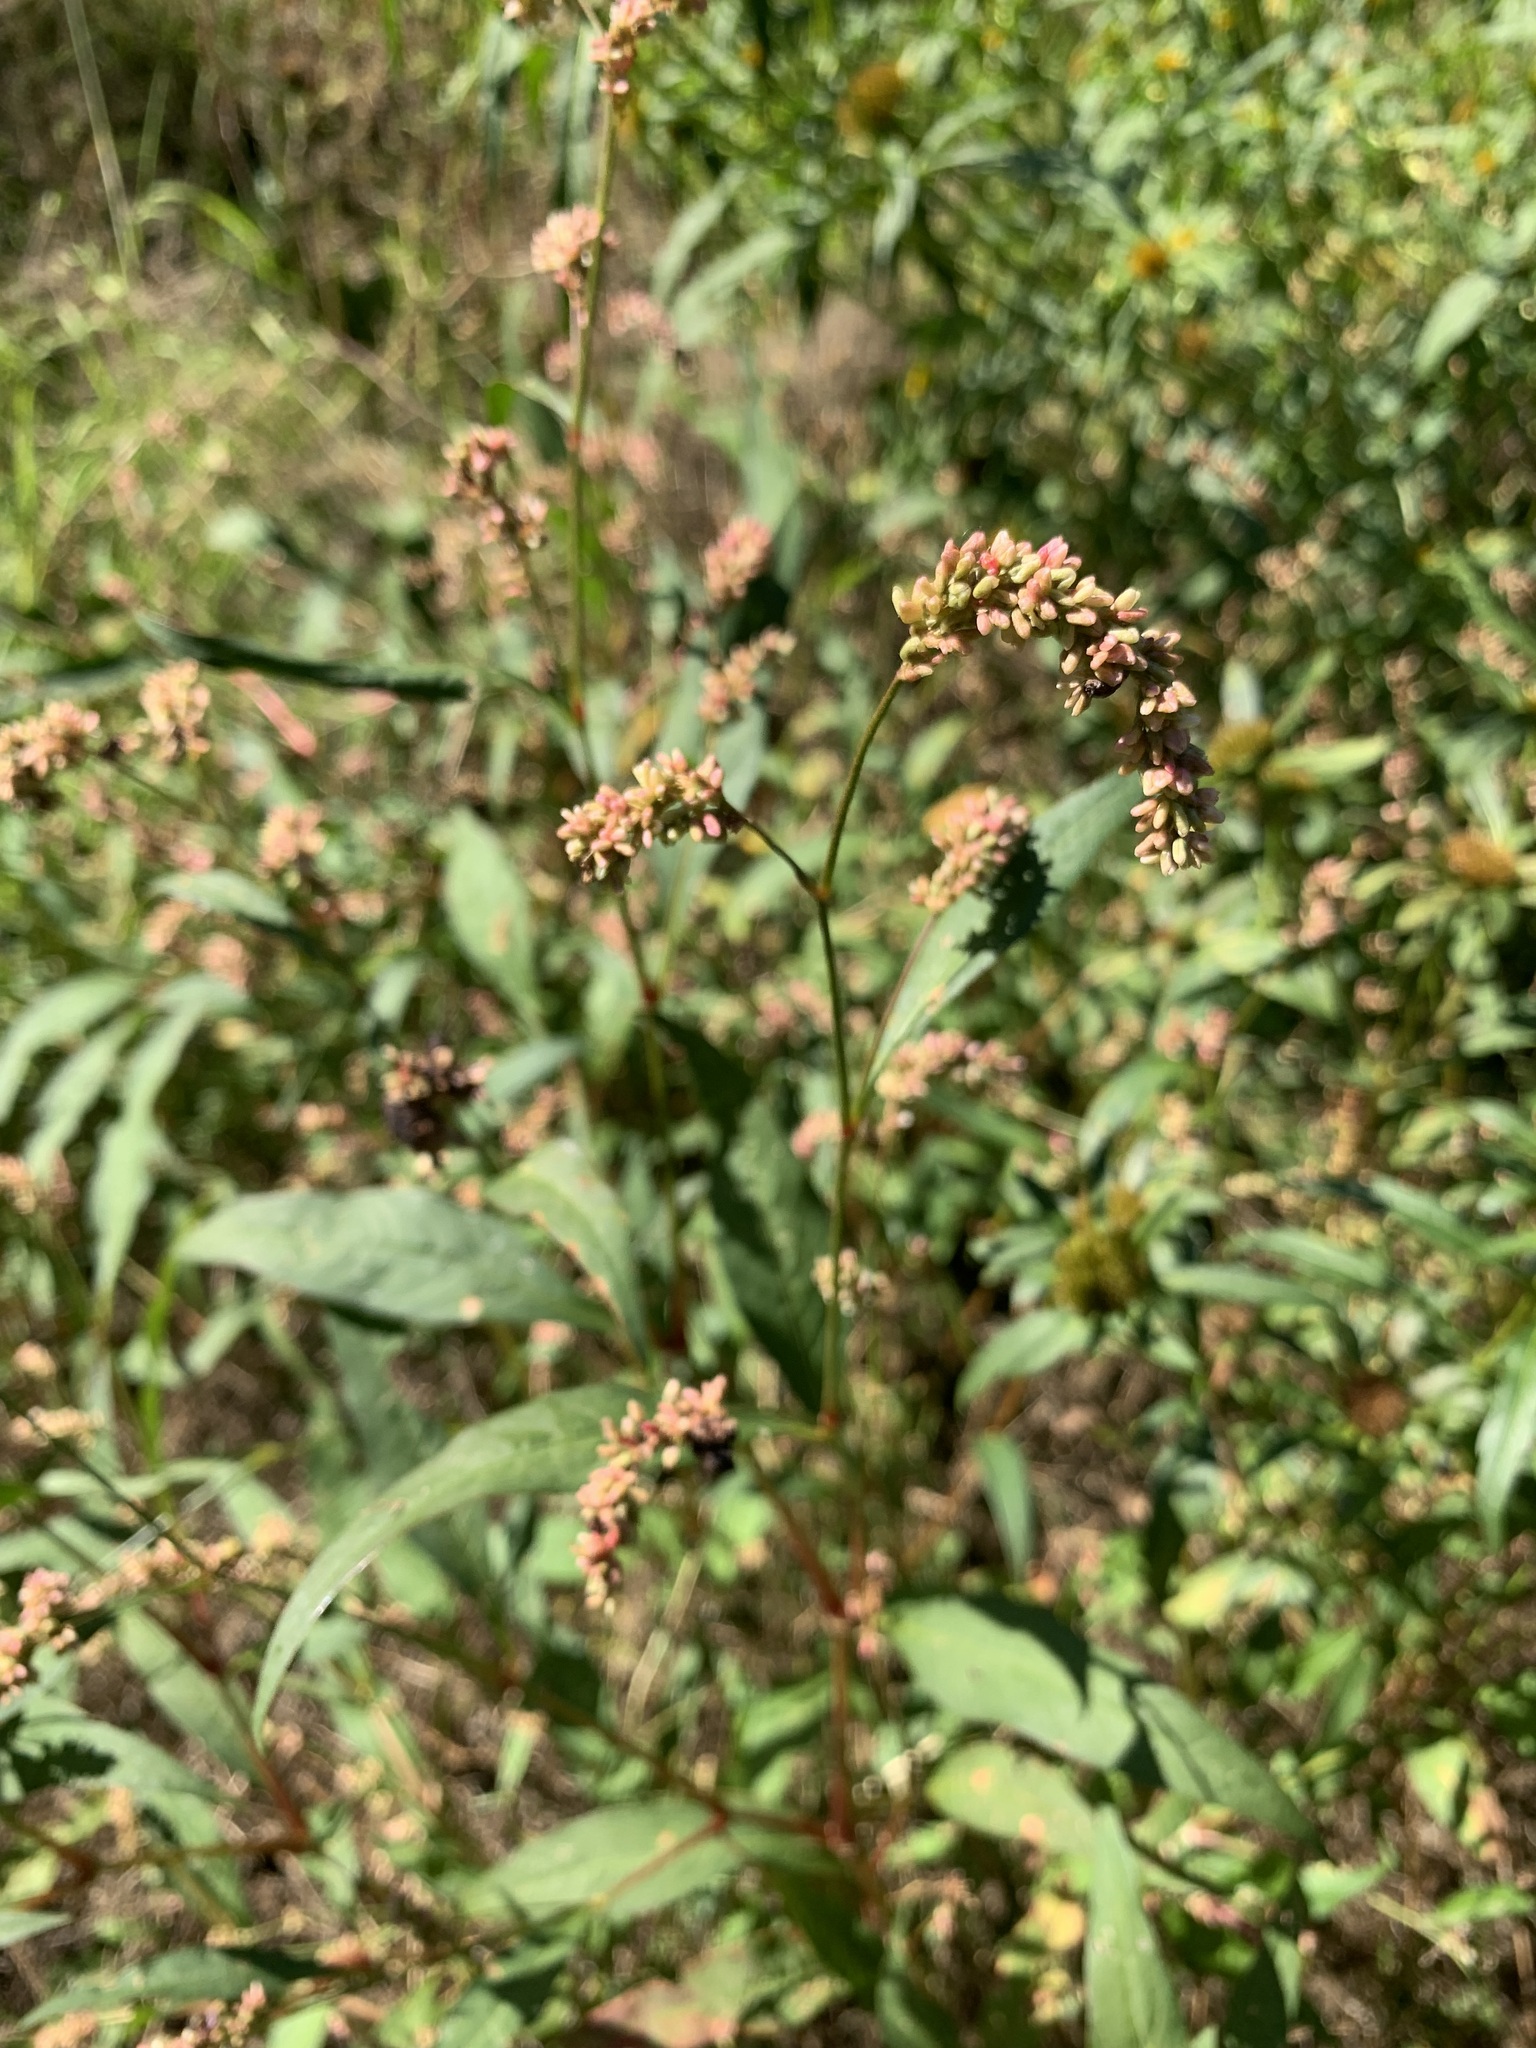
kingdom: Plantae
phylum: Tracheophyta
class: Magnoliopsida
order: Caryophyllales
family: Polygonaceae
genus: Persicaria
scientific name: Persicaria lapathifolia
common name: Curlytop knotweed
